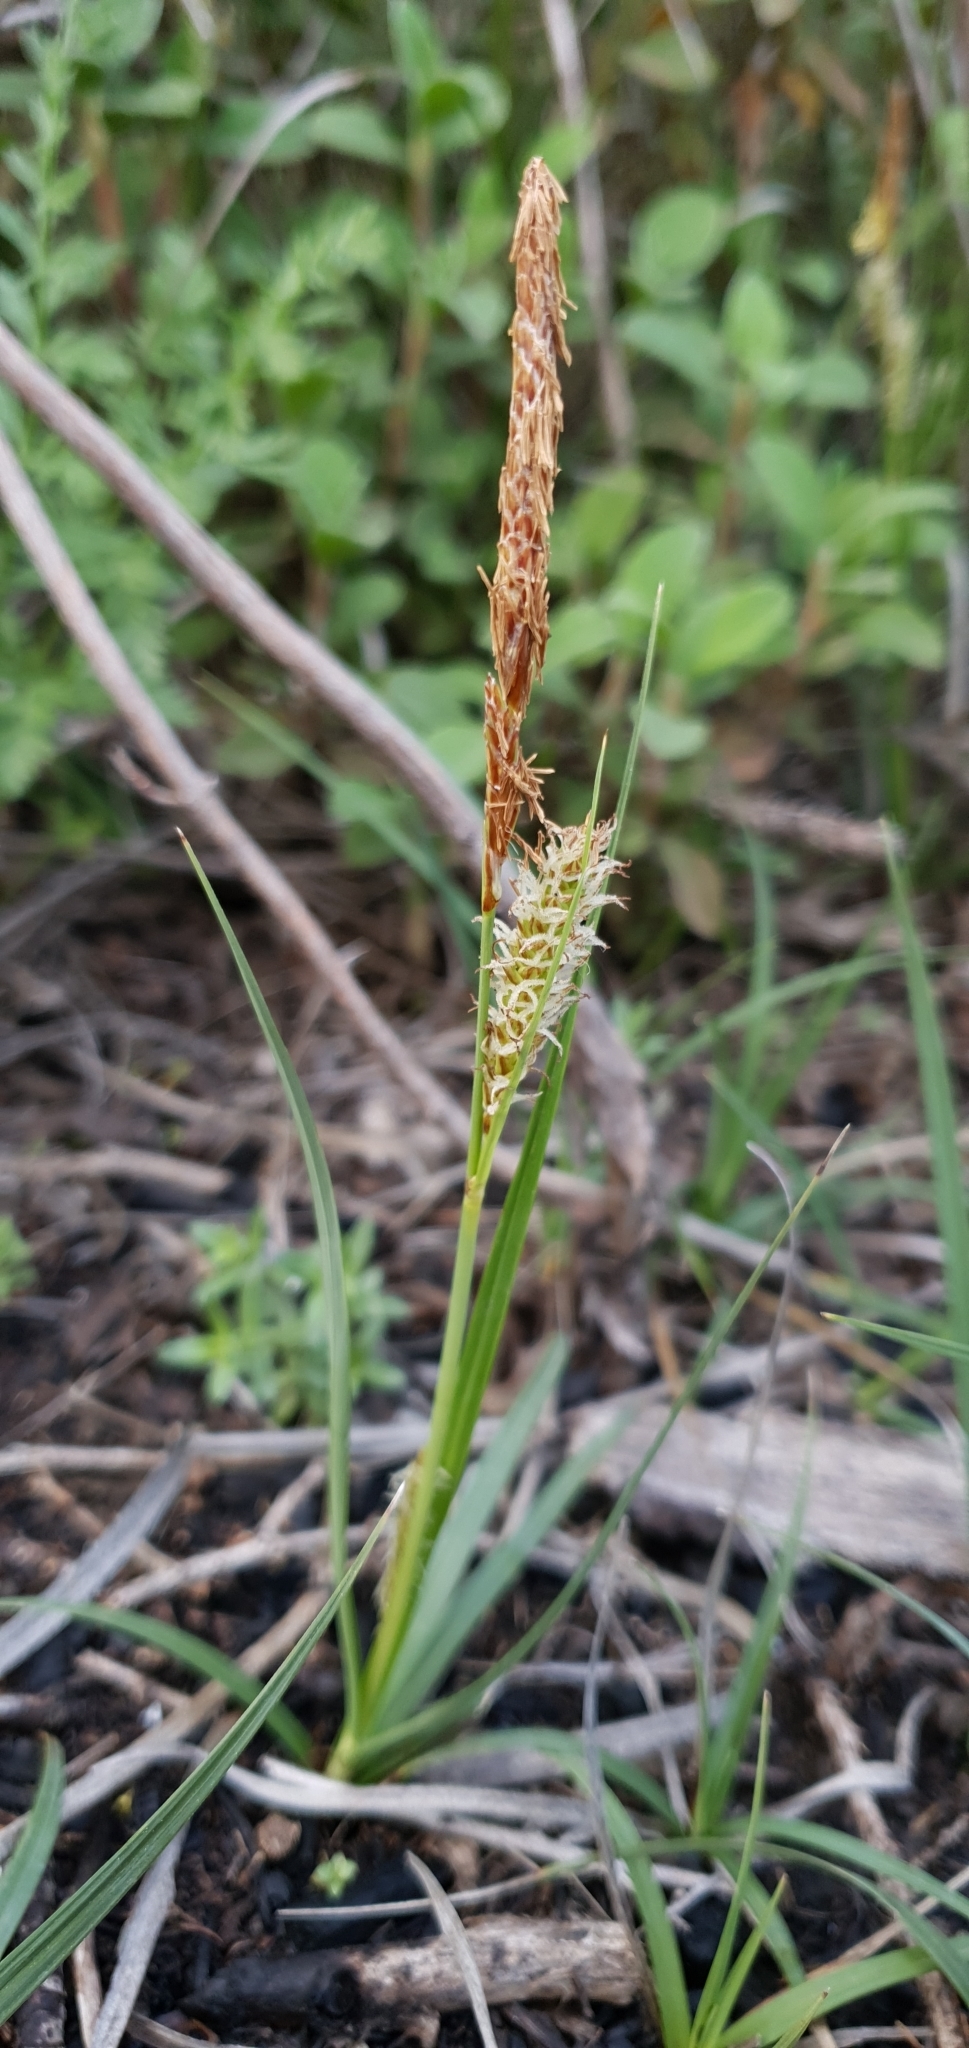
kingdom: Plantae
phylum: Tracheophyta
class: Liliopsida
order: Poales
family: Cyperaceae
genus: Carex
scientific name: Carex flacca
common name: Glaucous sedge
